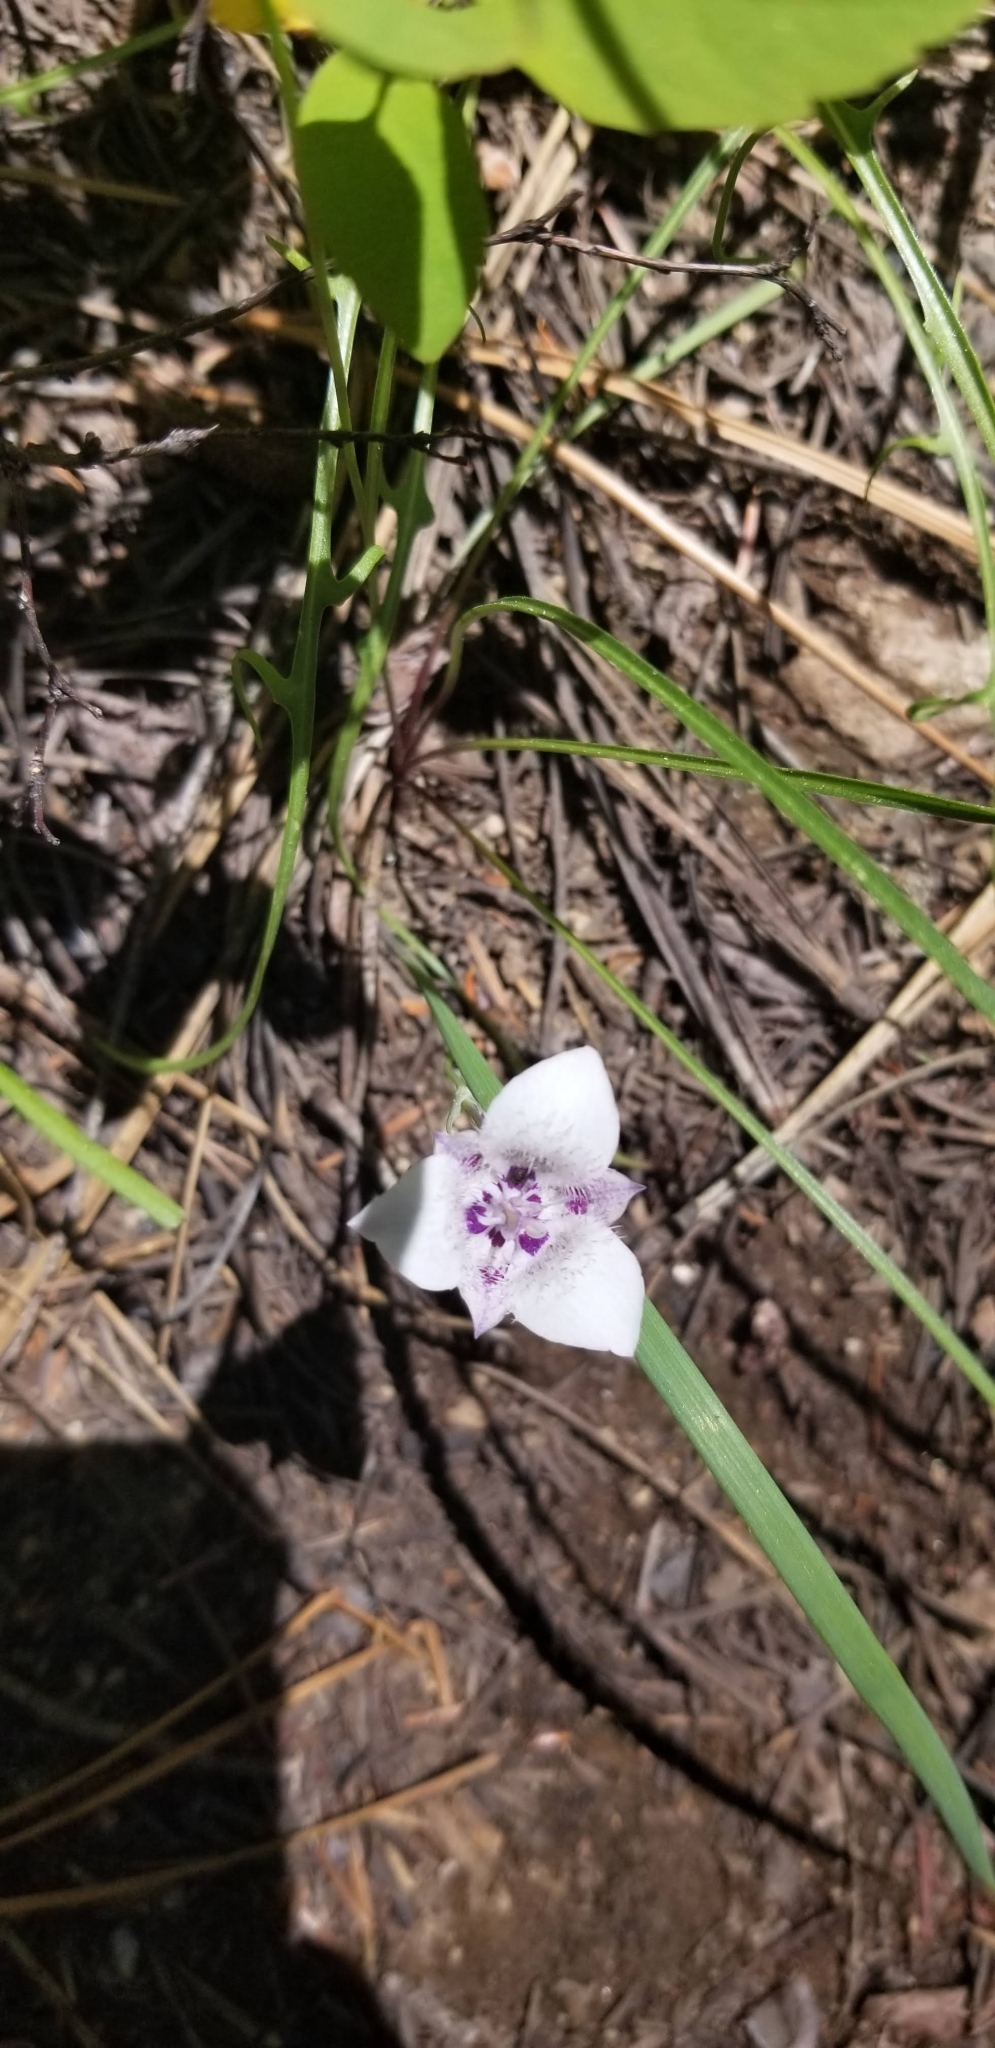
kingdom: Plantae
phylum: Tracheophyta
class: Liliopsida
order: Liliales
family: Liliaceae
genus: Calochortus
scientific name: Calochortus elegans
